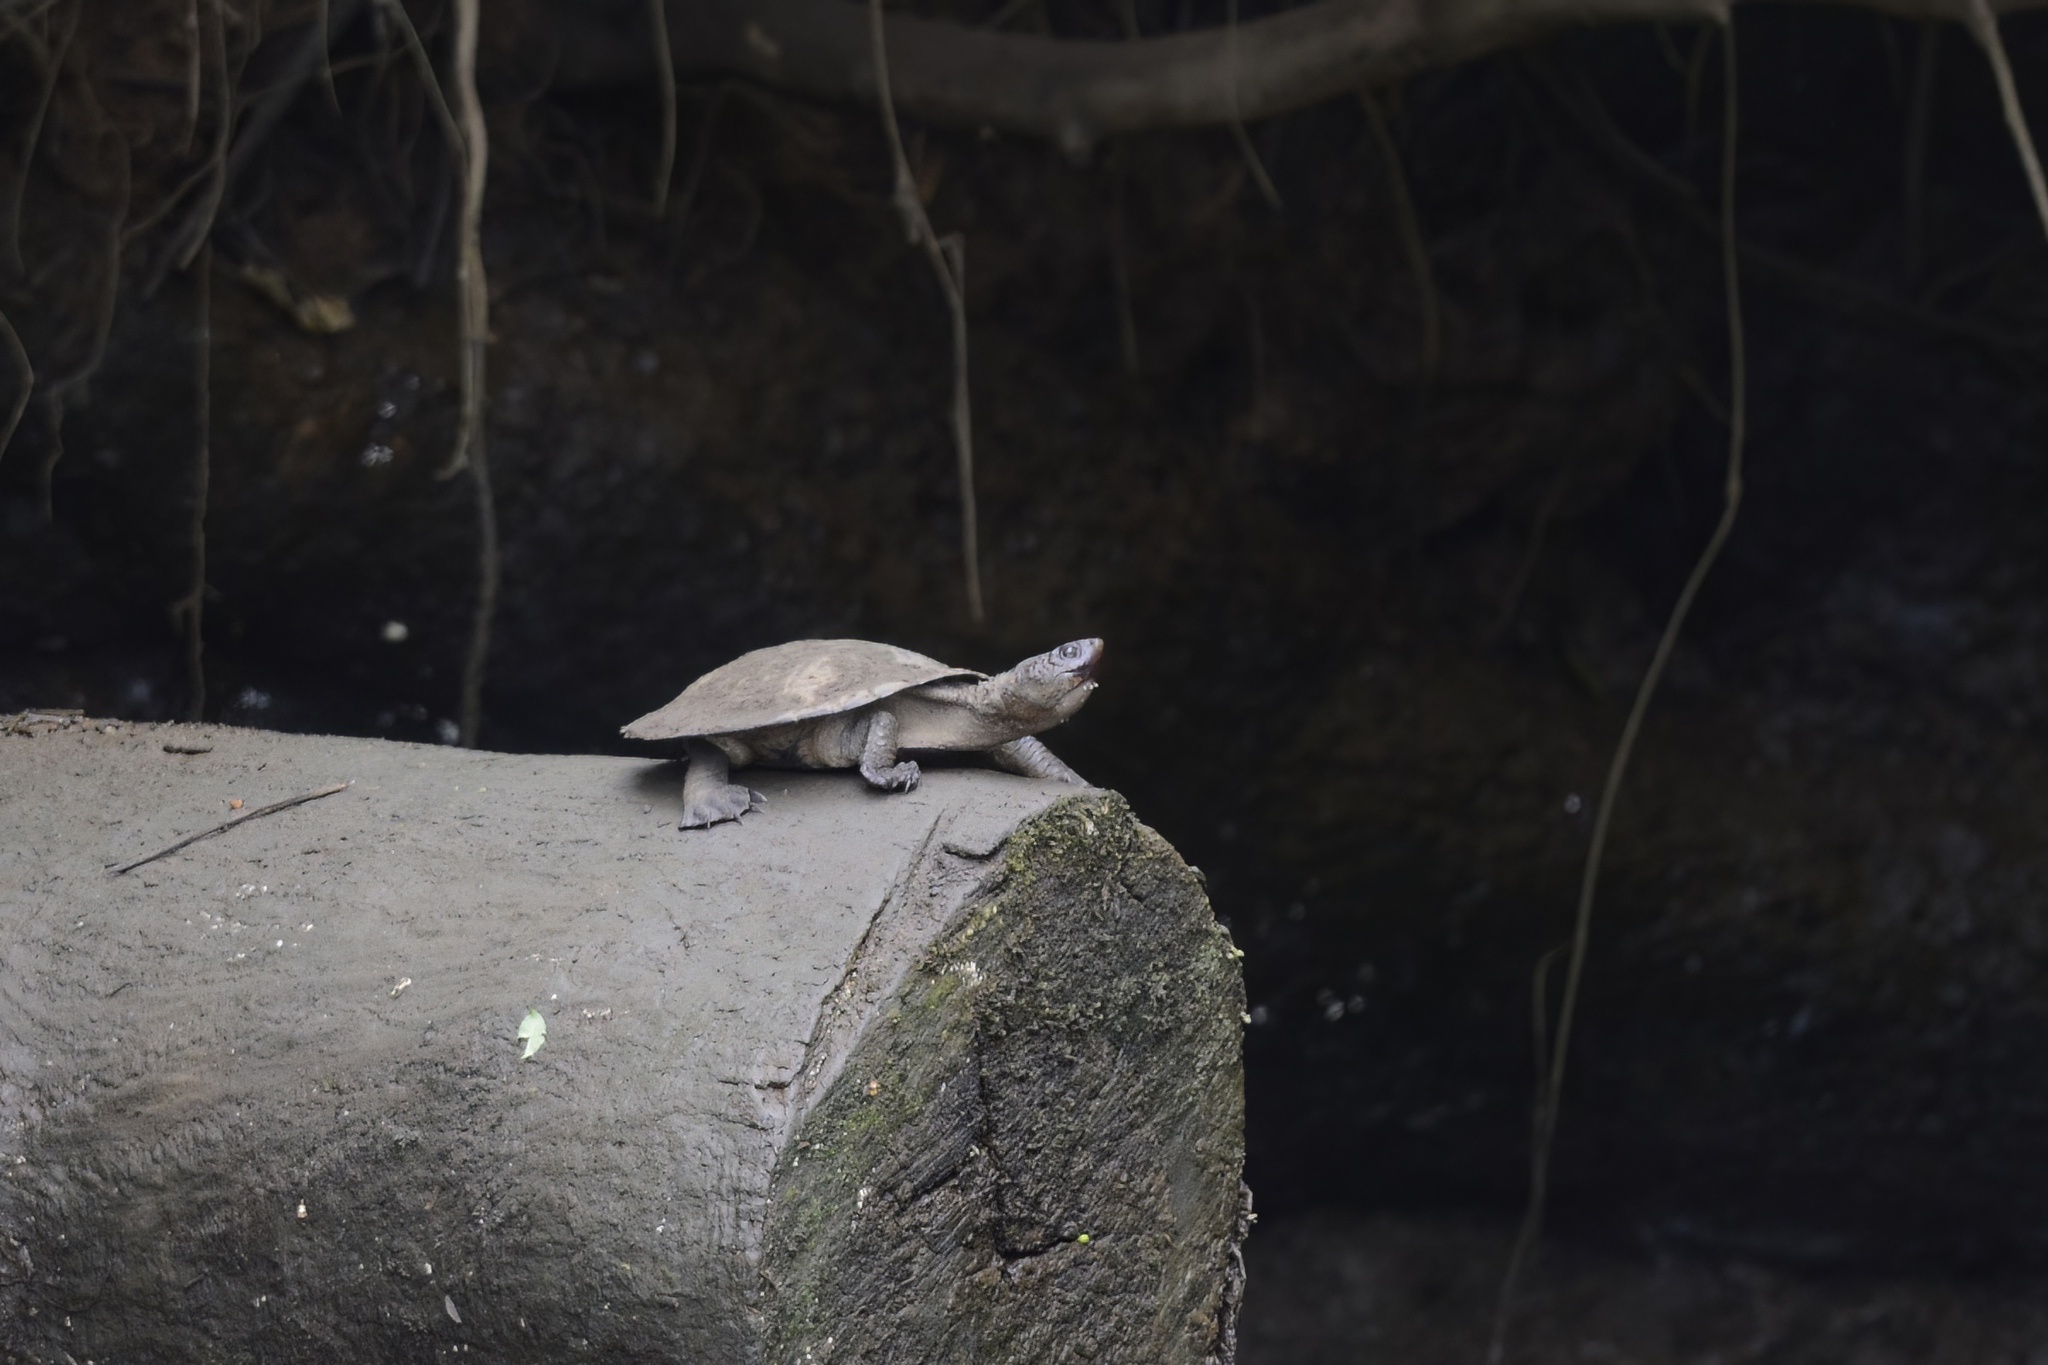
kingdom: Animalia
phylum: Chordata
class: Testudines
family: Chelidae
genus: Myuchelys
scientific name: Myuchelys latisternum
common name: Serrated snapping turtle
